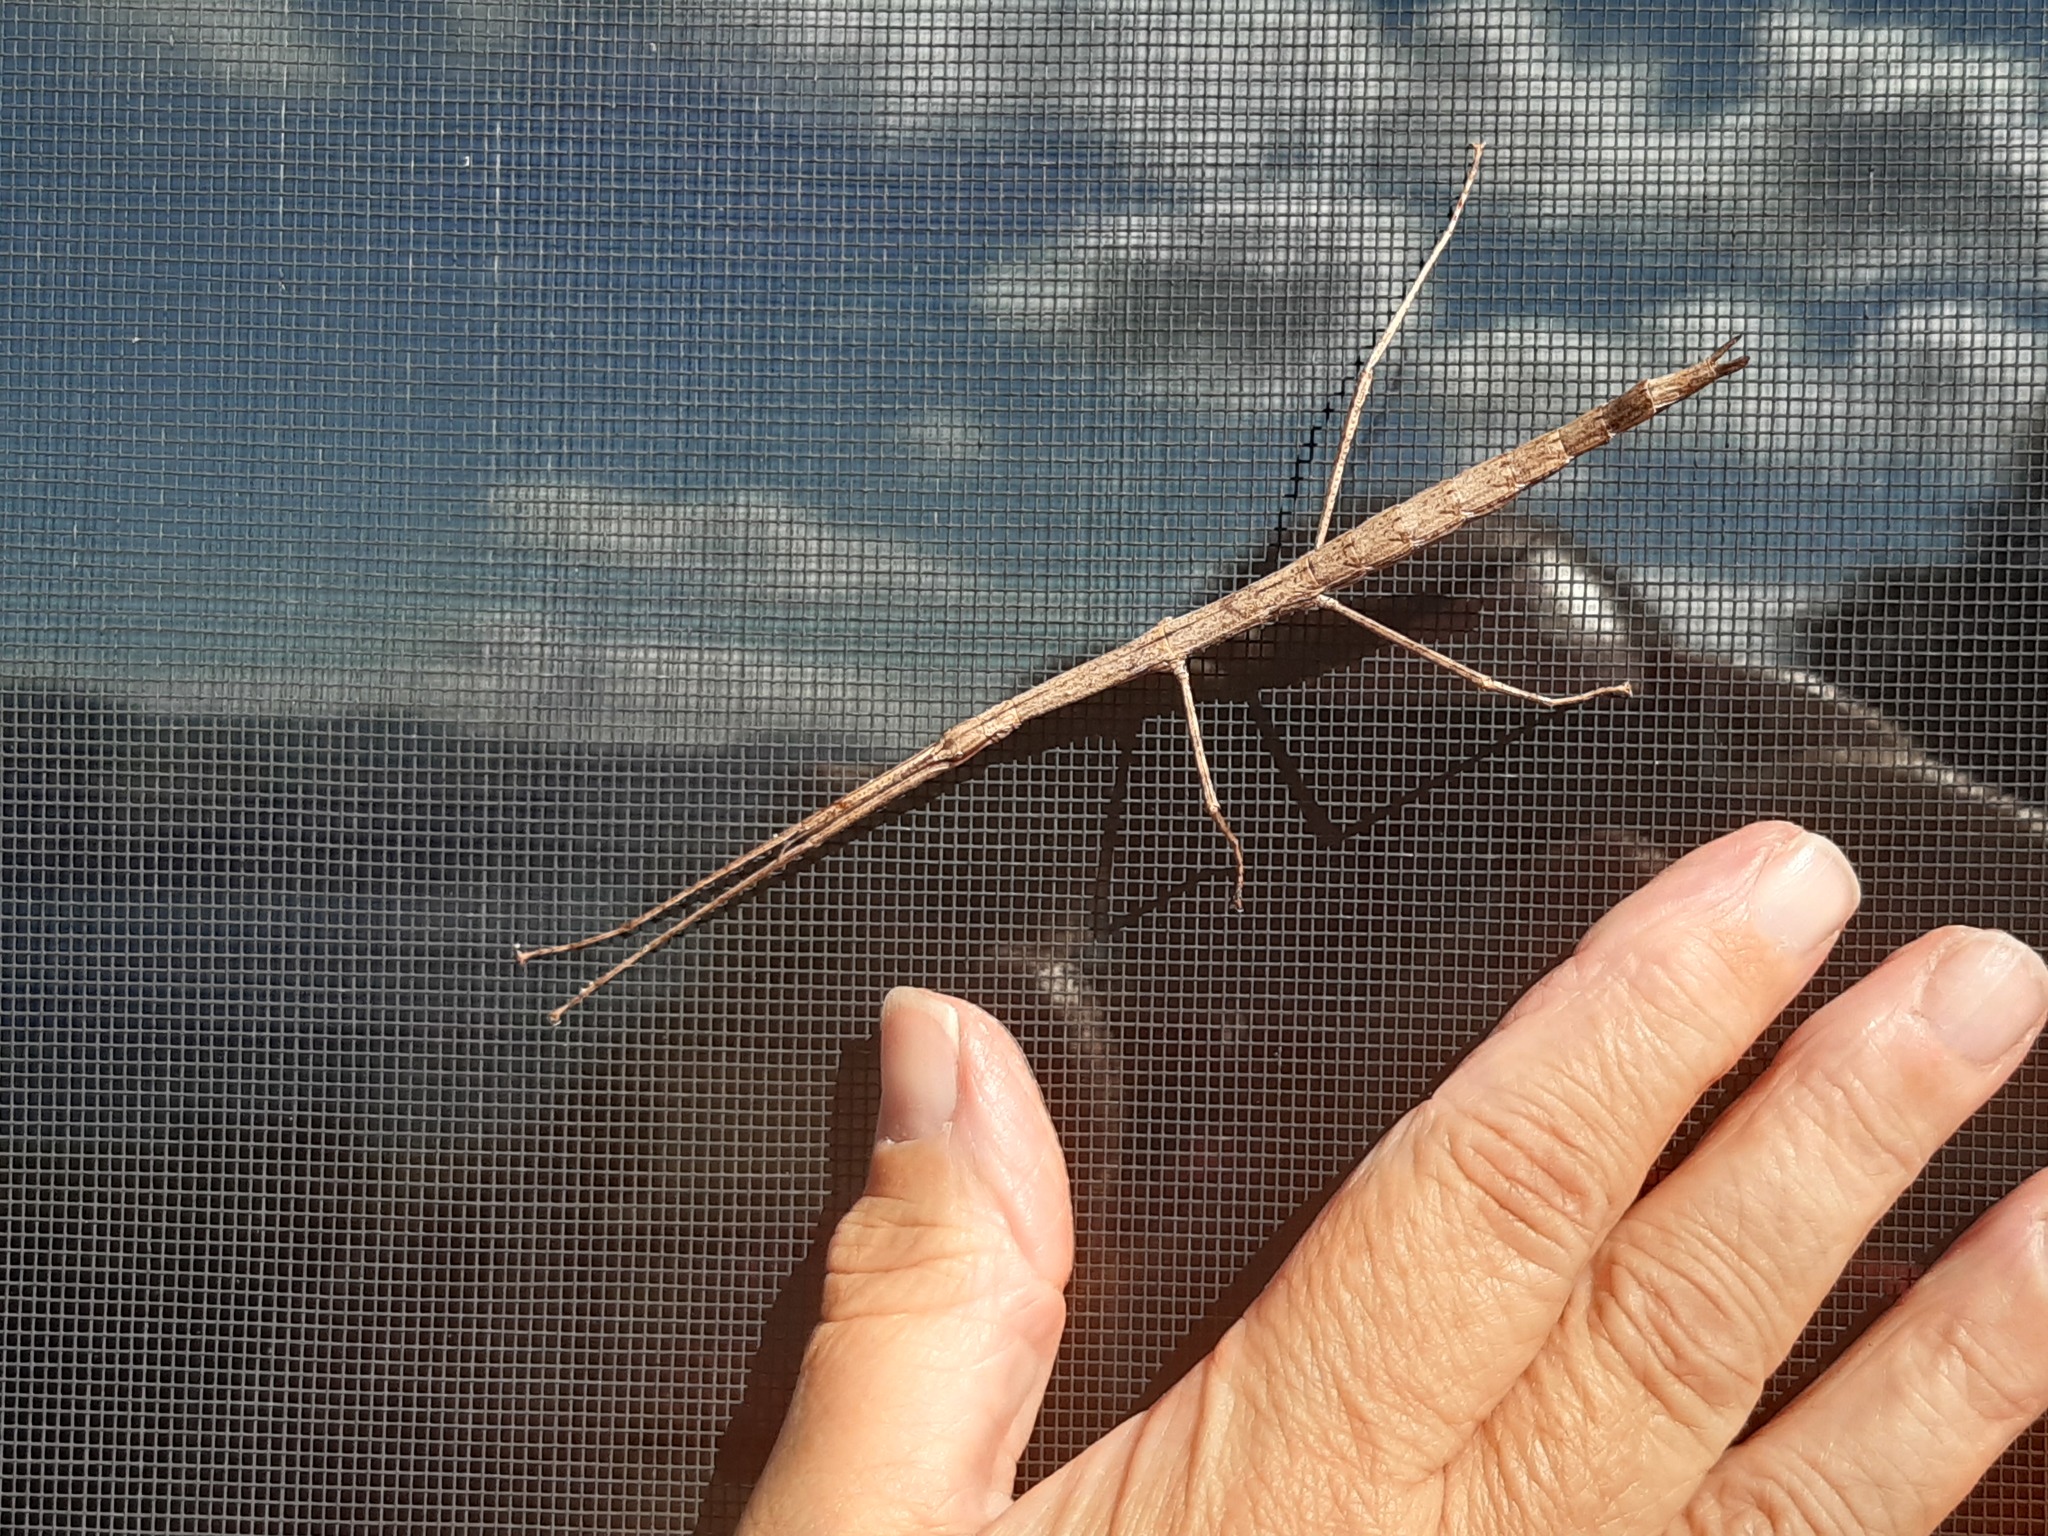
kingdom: Animalia
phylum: Arthropoda
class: Insecta
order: Phasmida
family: Phasmatidae
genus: Clitarchus
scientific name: Clitarchus hookeri
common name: Smooth stick insect
